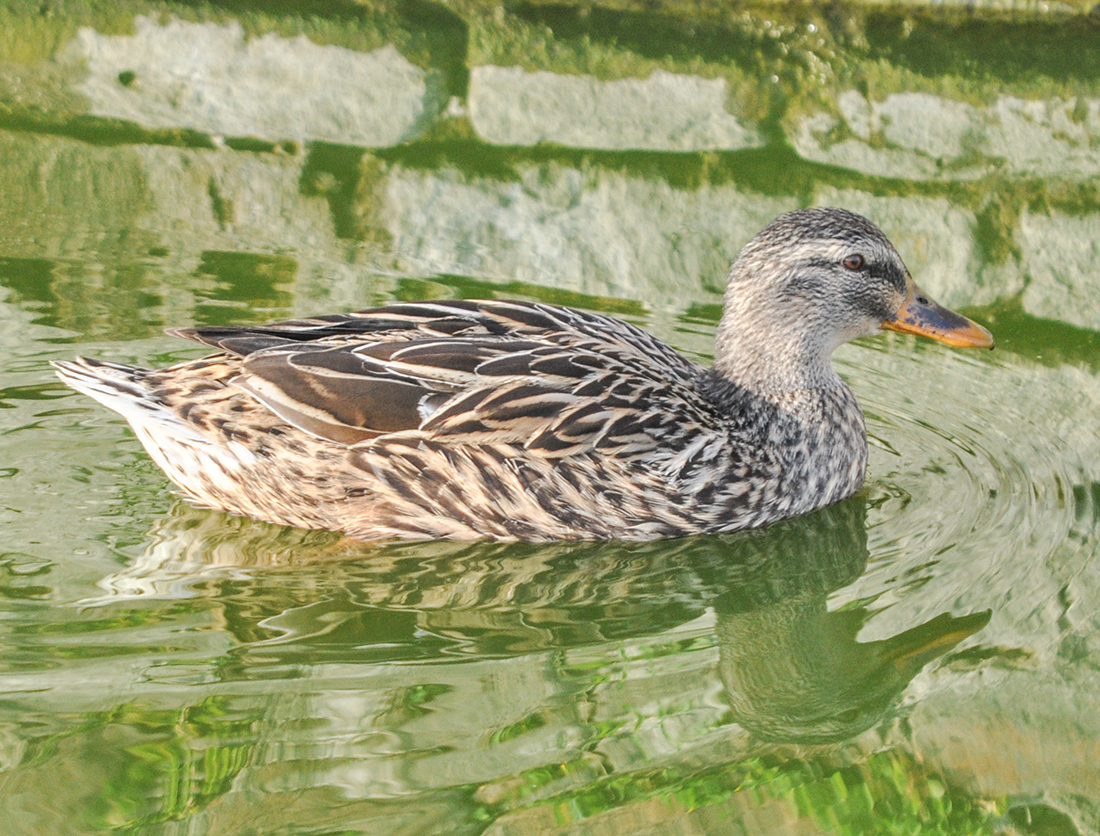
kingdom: Animalia
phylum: Chordata
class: Aves
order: Anseriformes
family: Anatidae
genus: Anas
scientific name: Anas platyrhynchos
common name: Mallard
